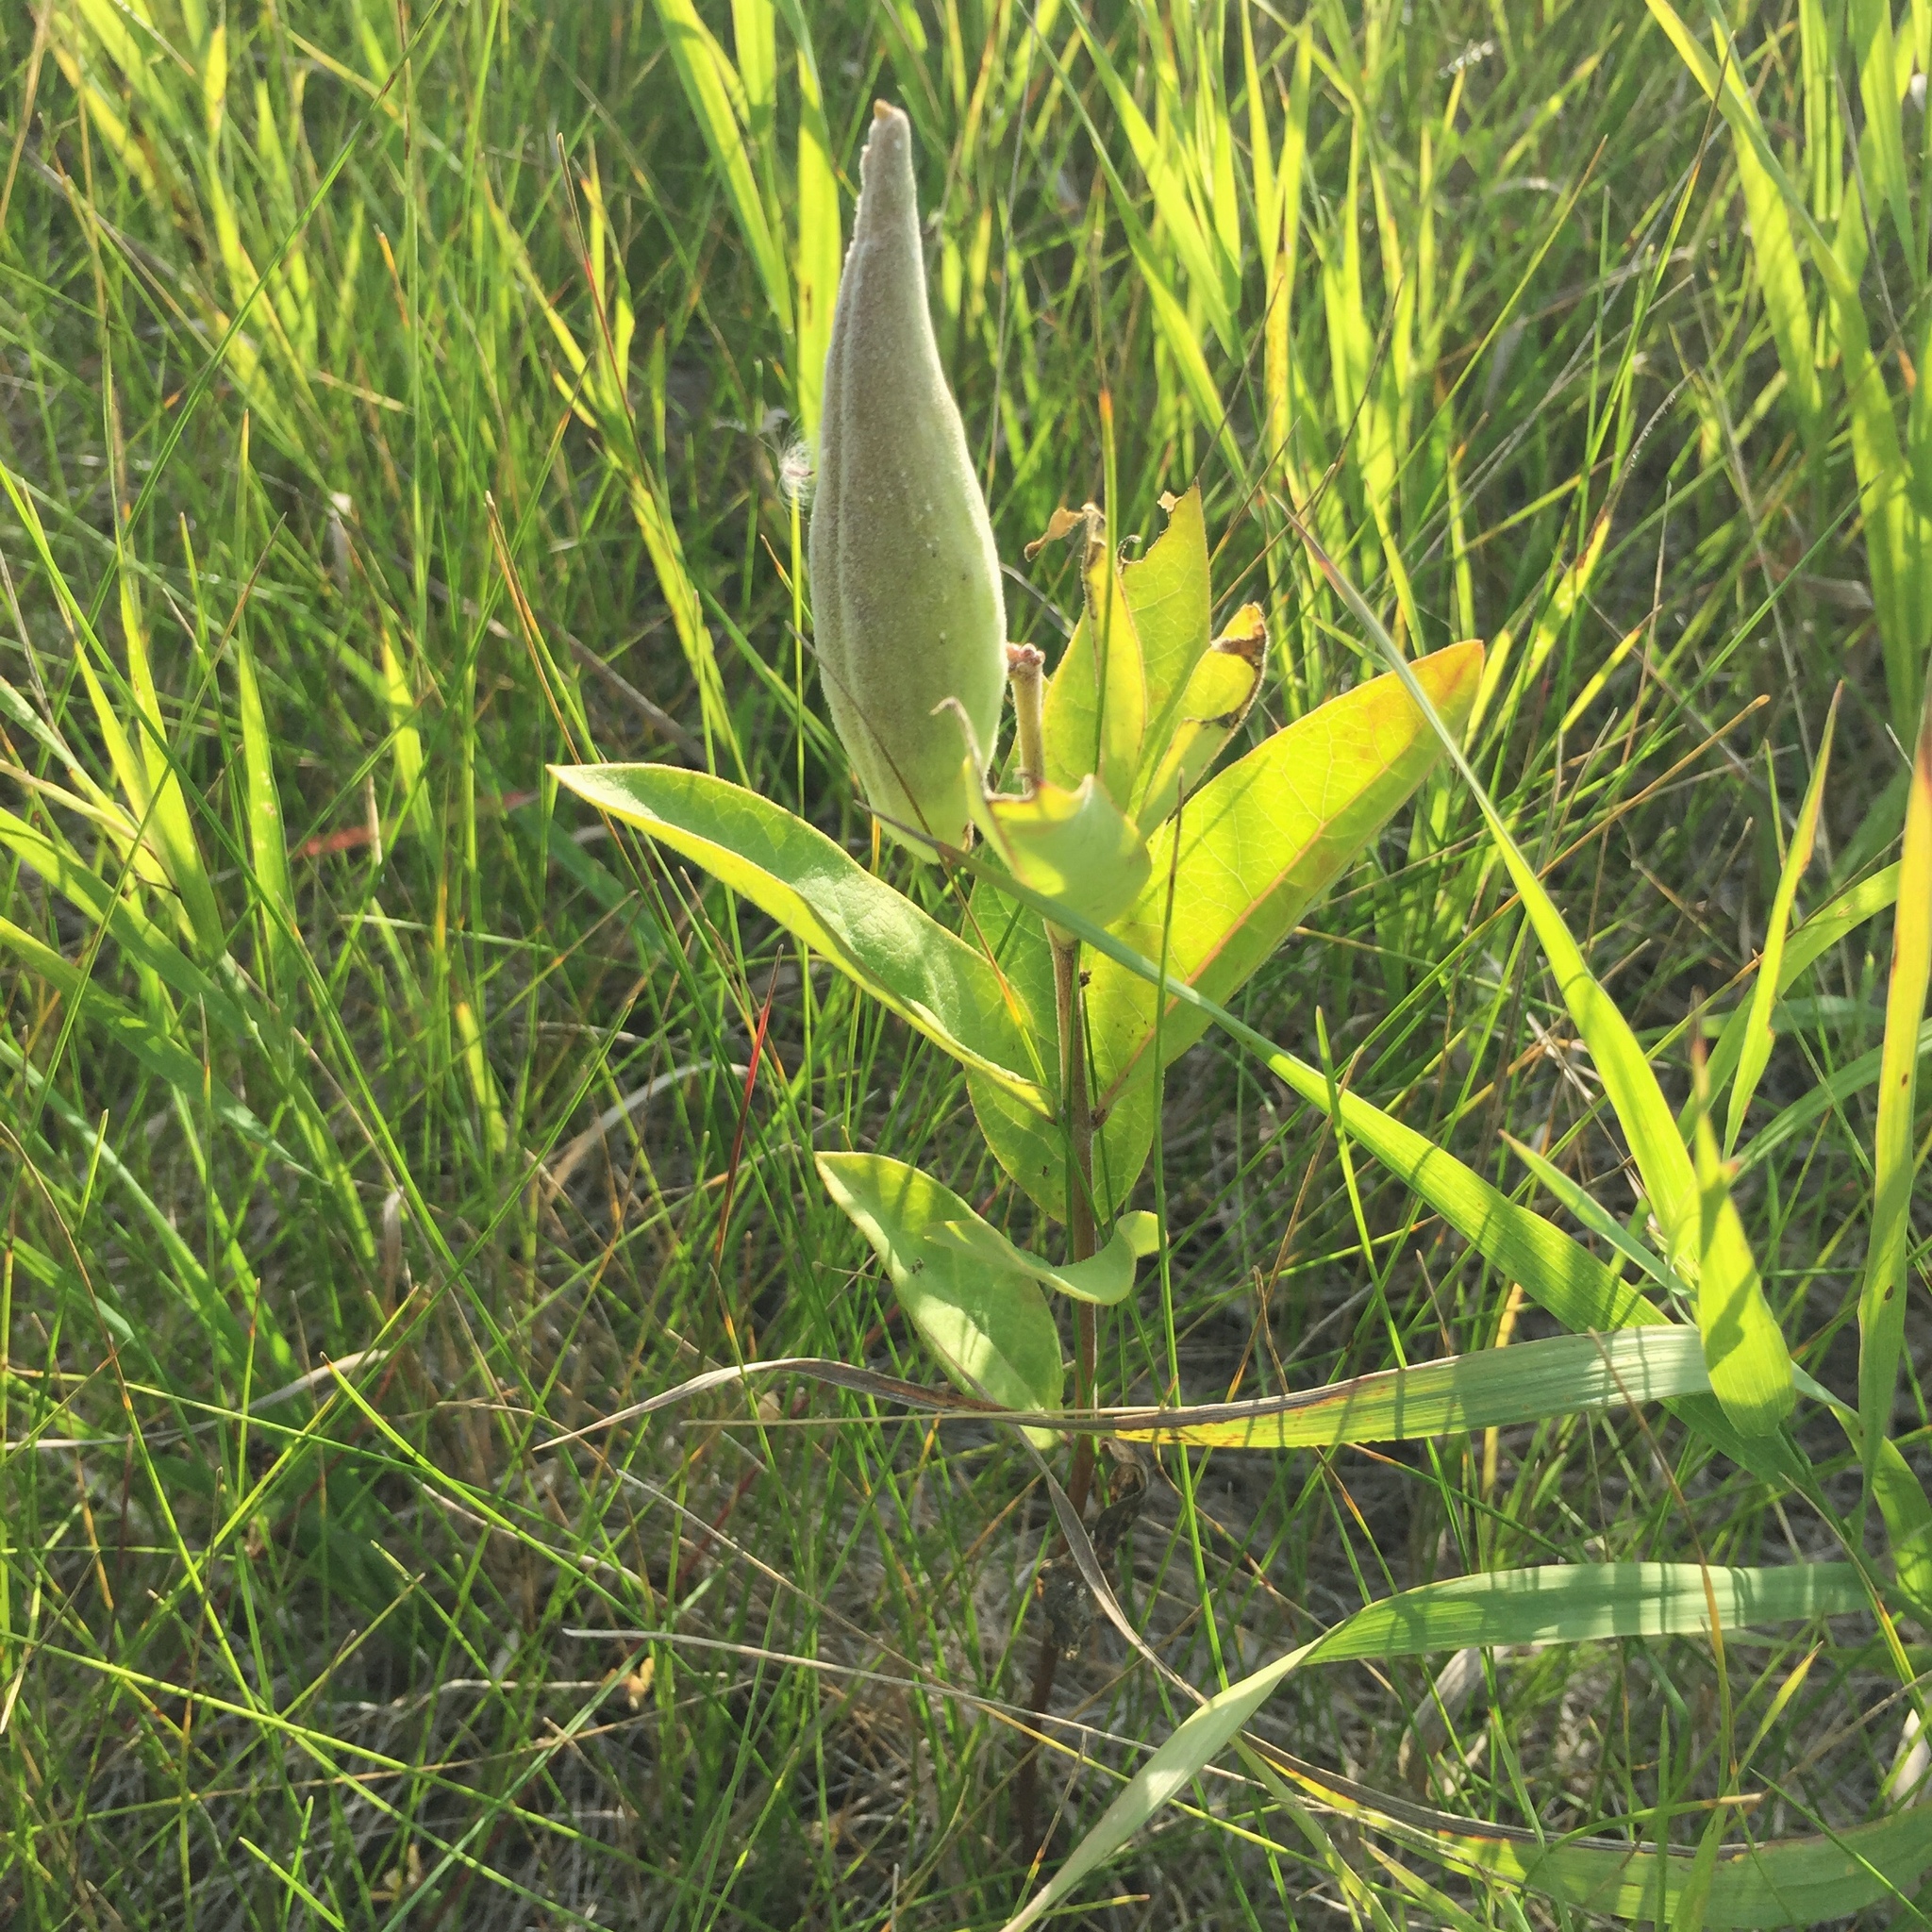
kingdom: Plantae
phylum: Tracheophyta
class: Magnoliopsida
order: Gentianales
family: Apocynaceae
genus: Asclepias
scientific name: Asclepias ovalifolia
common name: Dwarf milkweed
